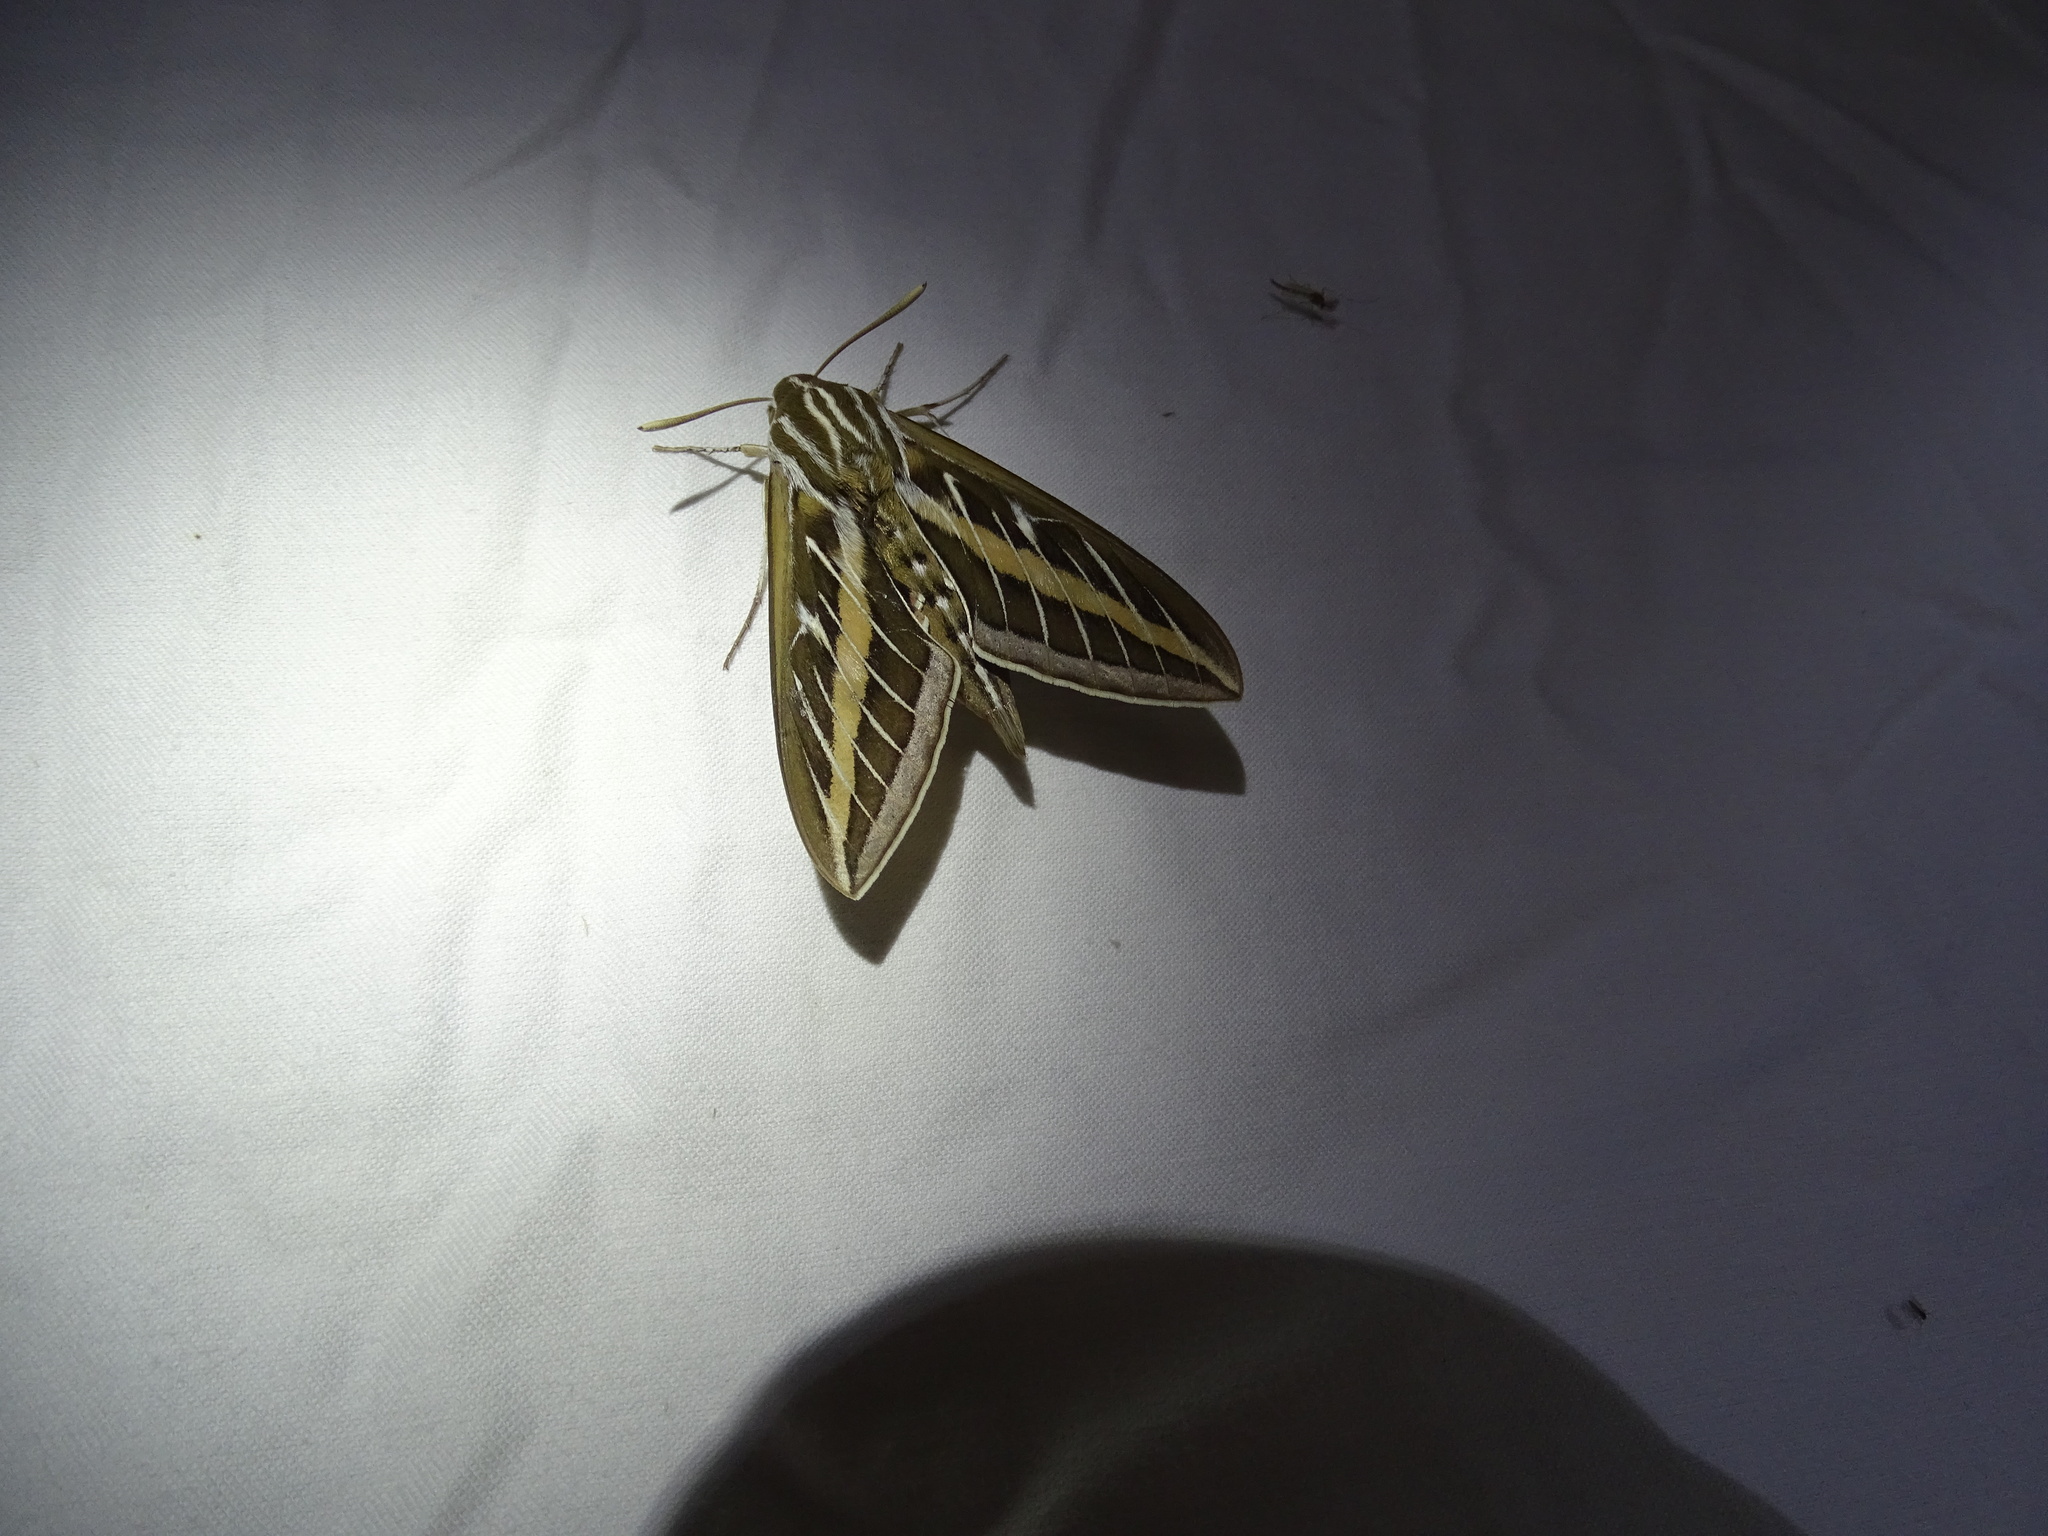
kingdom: Animalia
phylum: Arthropoda
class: Insecta
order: Lepidoptera
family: Sphingidae
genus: Hyles
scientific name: Hyles lineata
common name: White-lined sphinx
